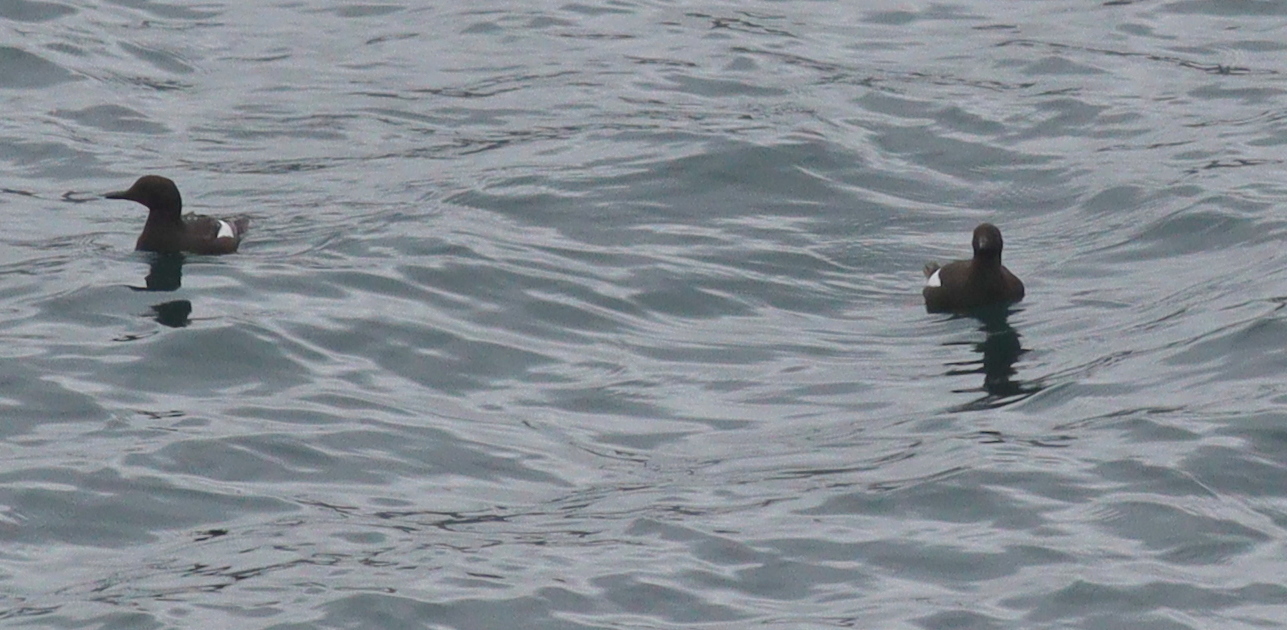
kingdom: Animalia
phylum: Chordata
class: Aves
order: Charadriiformes
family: Alcidae
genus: Cepphus
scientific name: Cepphus grylle
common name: Black guillemot
